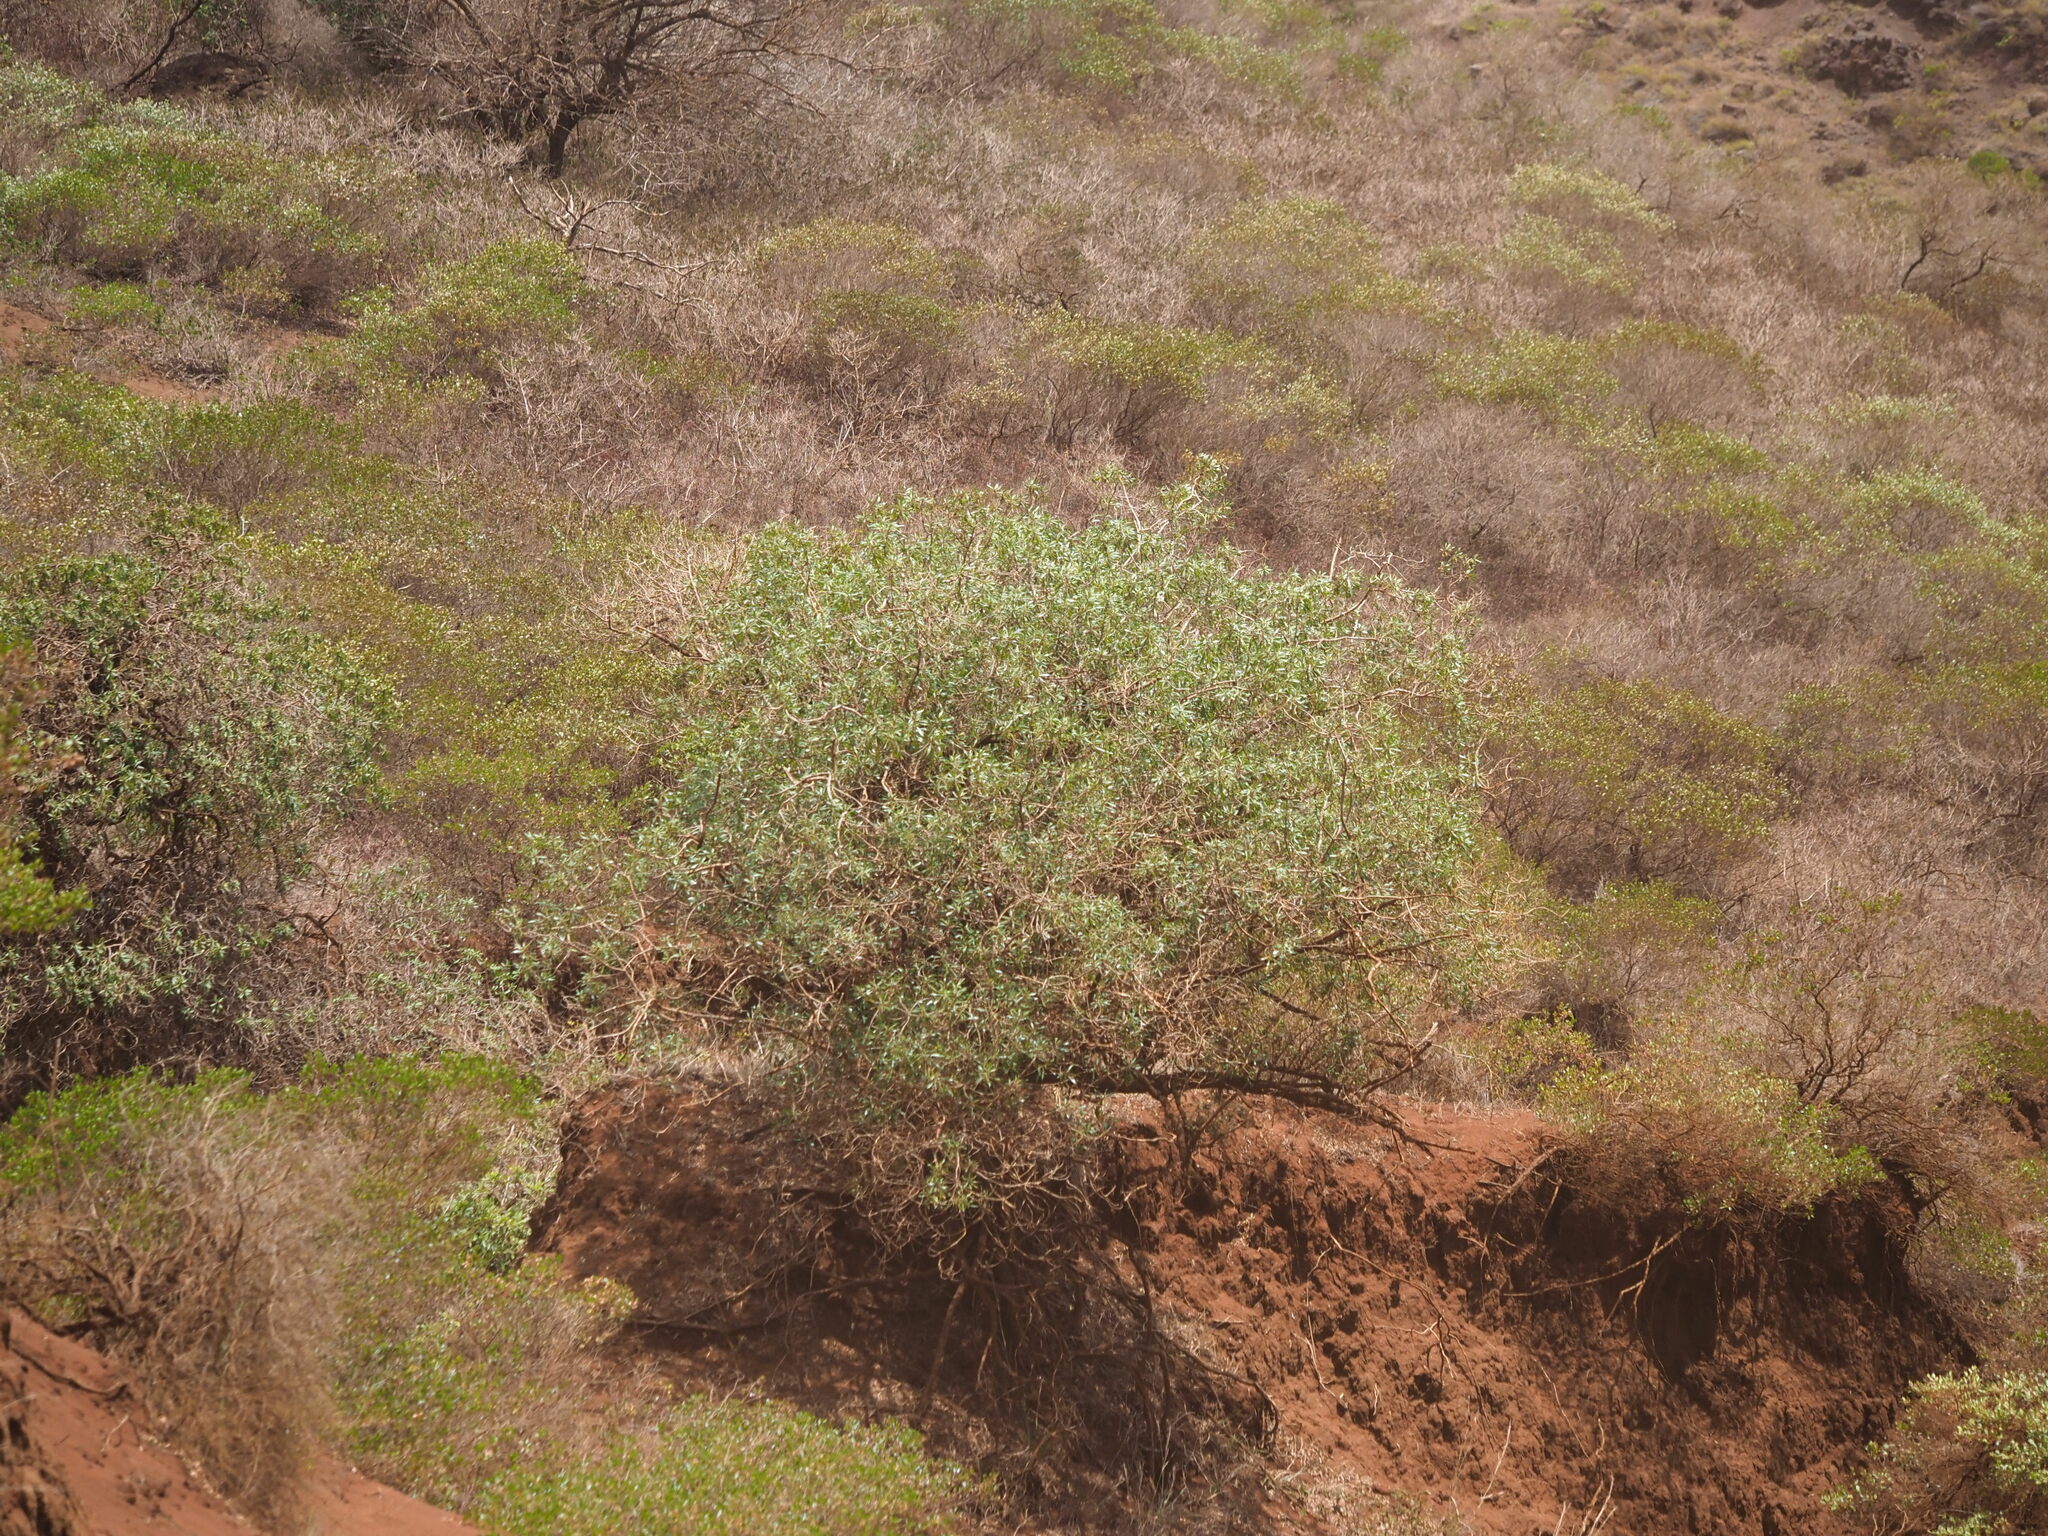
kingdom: Plantae
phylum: Tracheophyta
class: Magnoliopsida
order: Lamiales
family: Scrophulariaceae
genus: Myoporum
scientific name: Myoporum sandwicense
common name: Bastard-sandalwood
